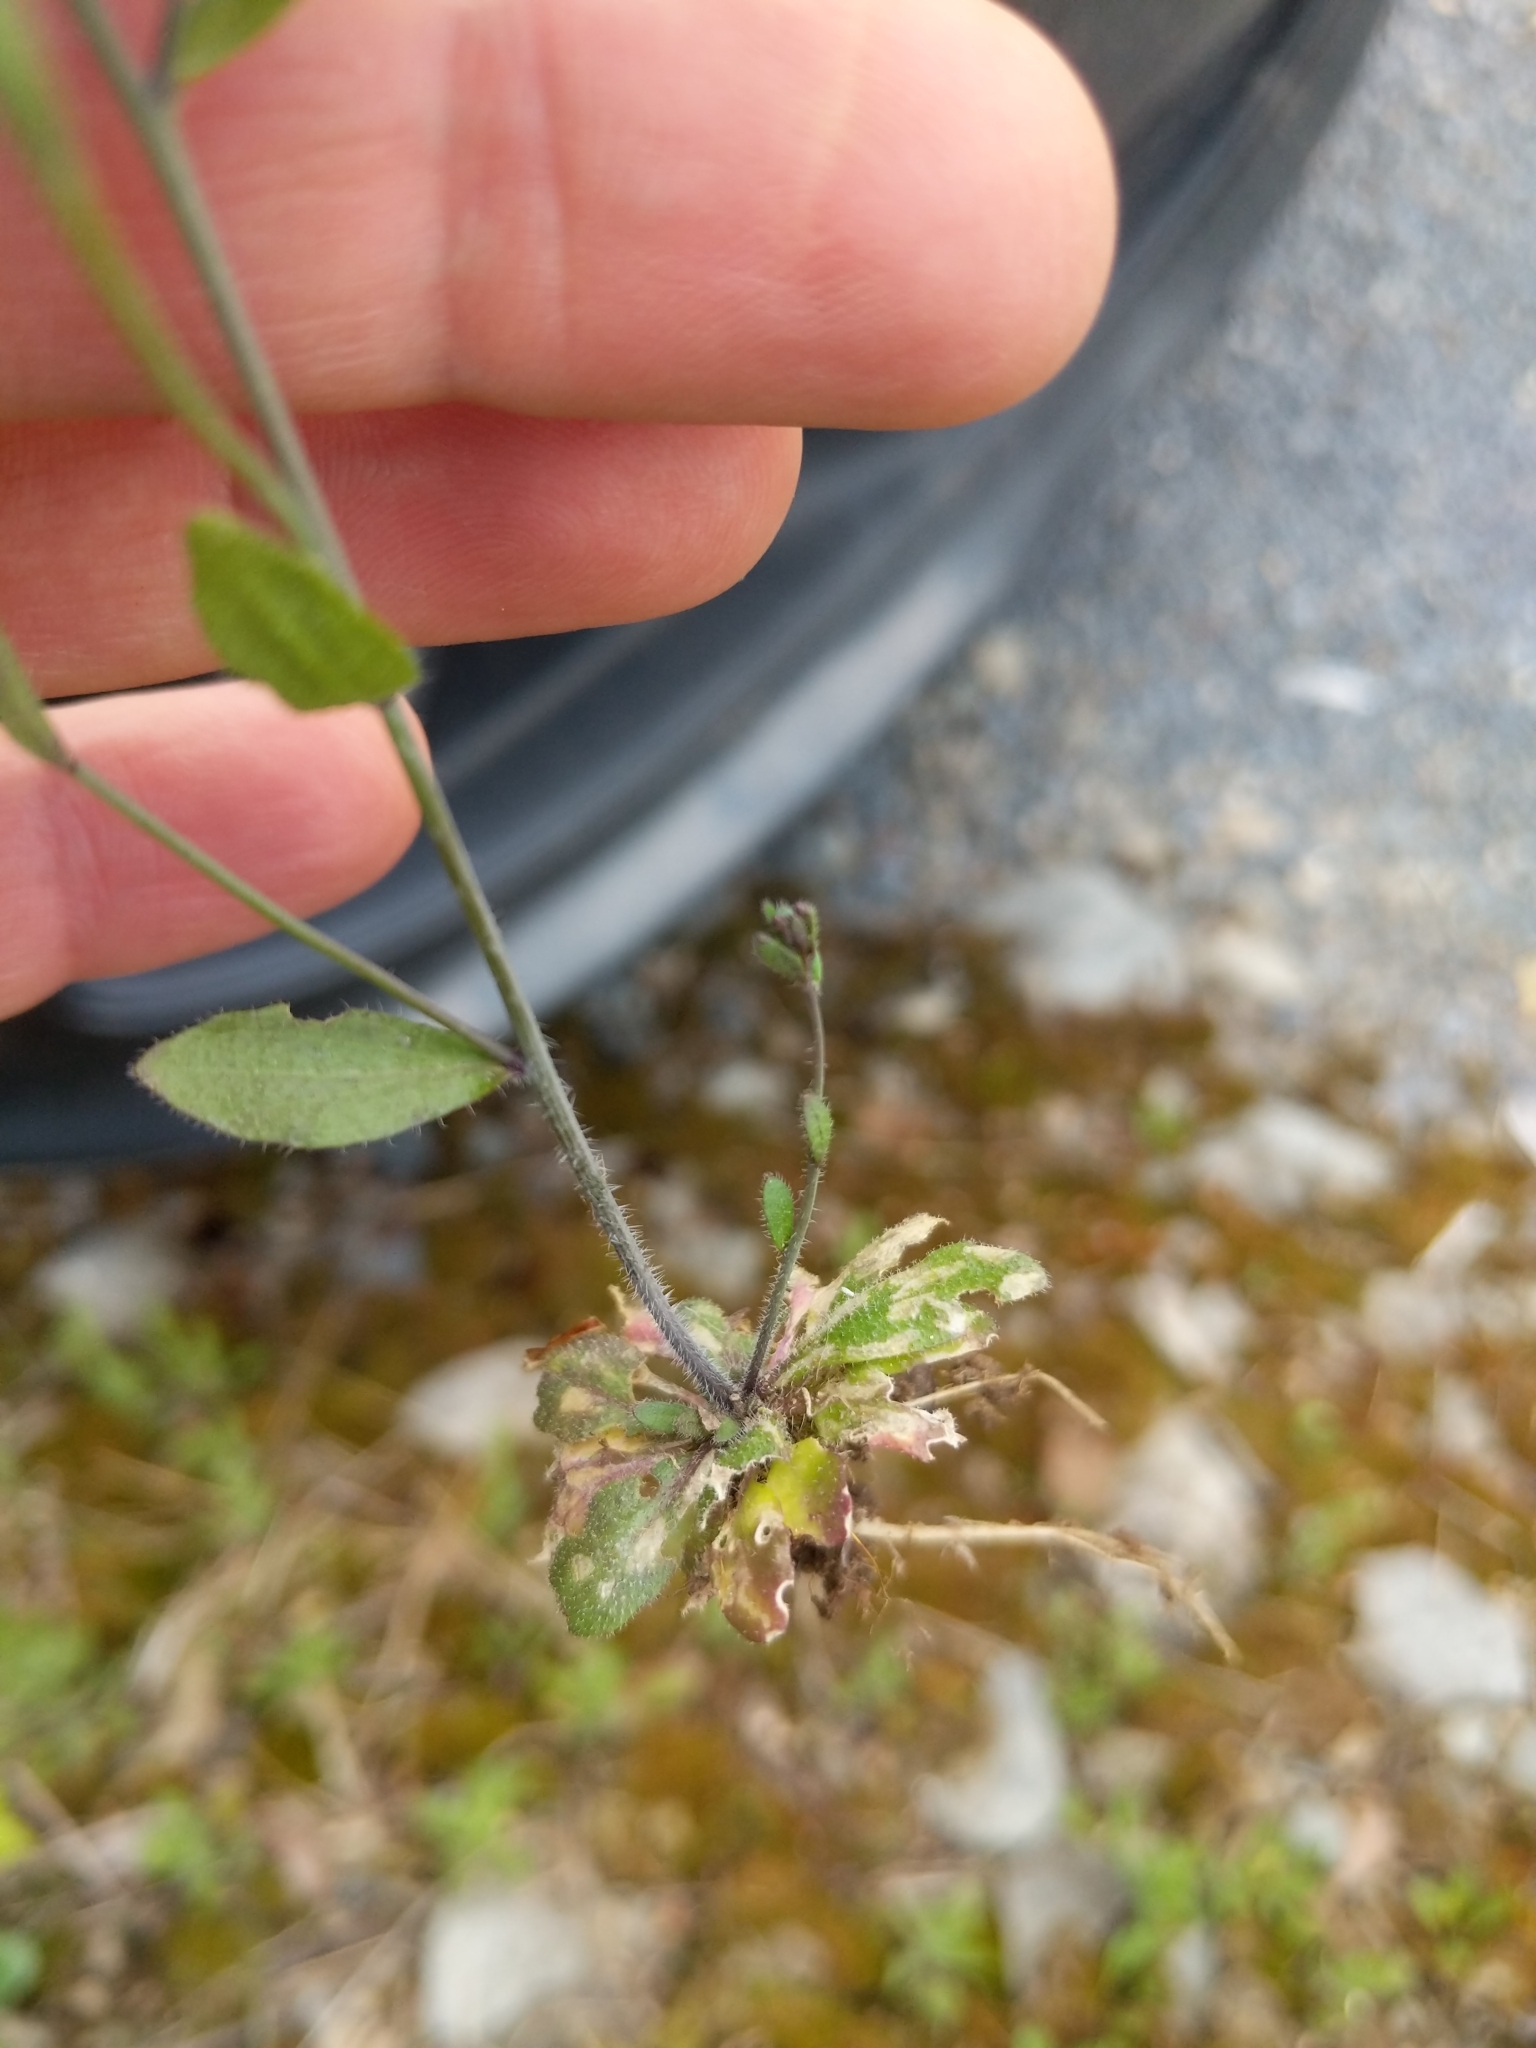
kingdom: Plantae
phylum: Tracheophyta
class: Magnoliopsida
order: Brassicales
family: Brassicaceae
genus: Arabidopsis
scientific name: Arabidopsis thaliana
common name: Thale cress
